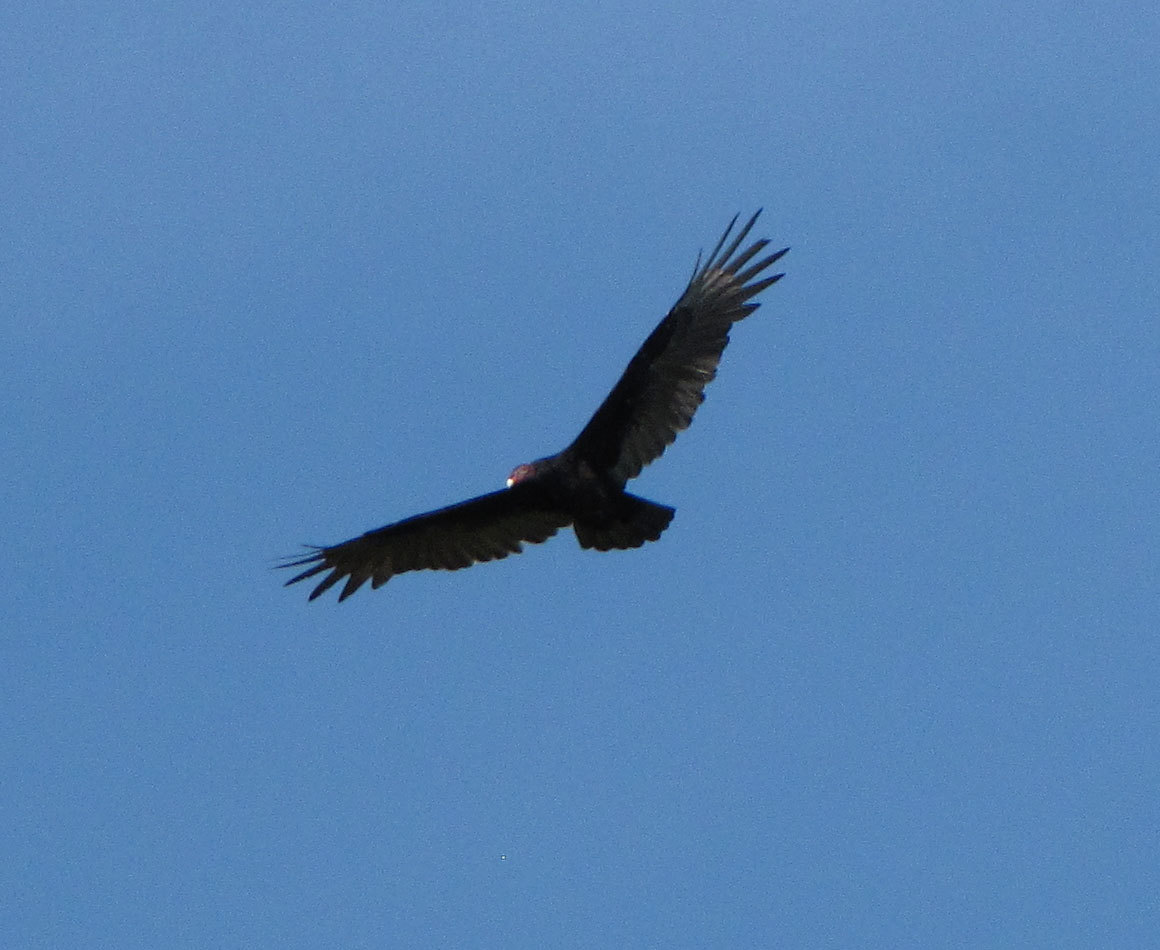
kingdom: Animalia
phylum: Chordata
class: Aves
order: Accipitriformes
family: Cathartidae
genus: Cathartes
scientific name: Cathartes aura
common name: Turkey vulture
